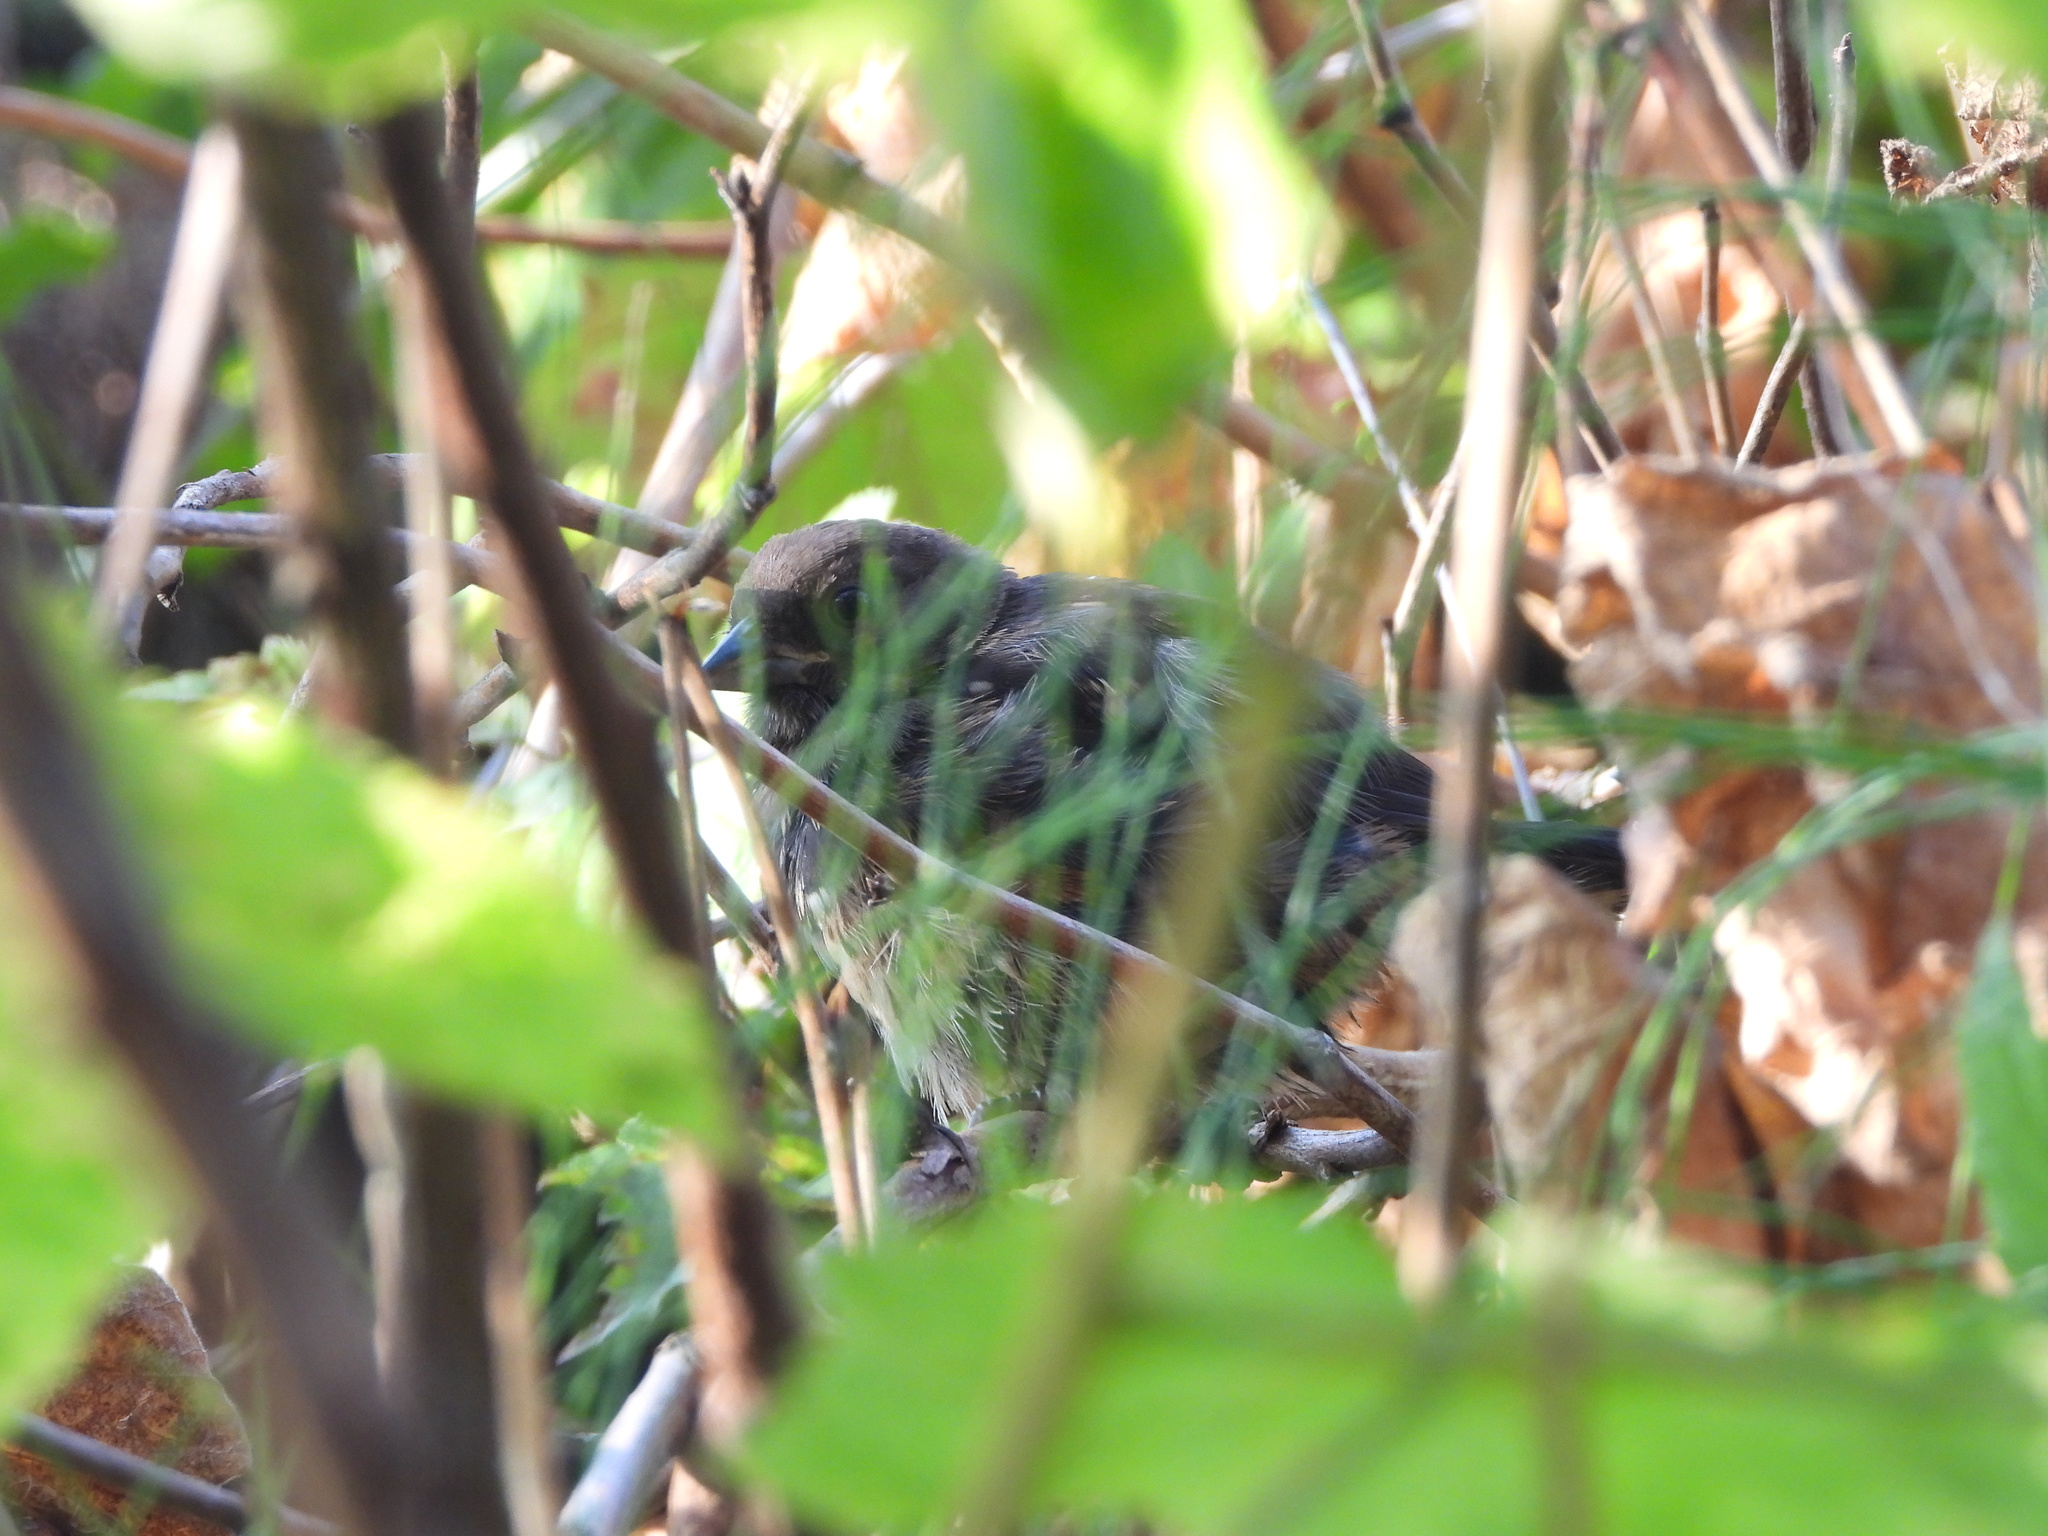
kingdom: Animalia
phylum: Chordata
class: Aves
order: Passeriformes
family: Passerellidae
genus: Pipilo
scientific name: Pipilo maculatus
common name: Spotted towhee
